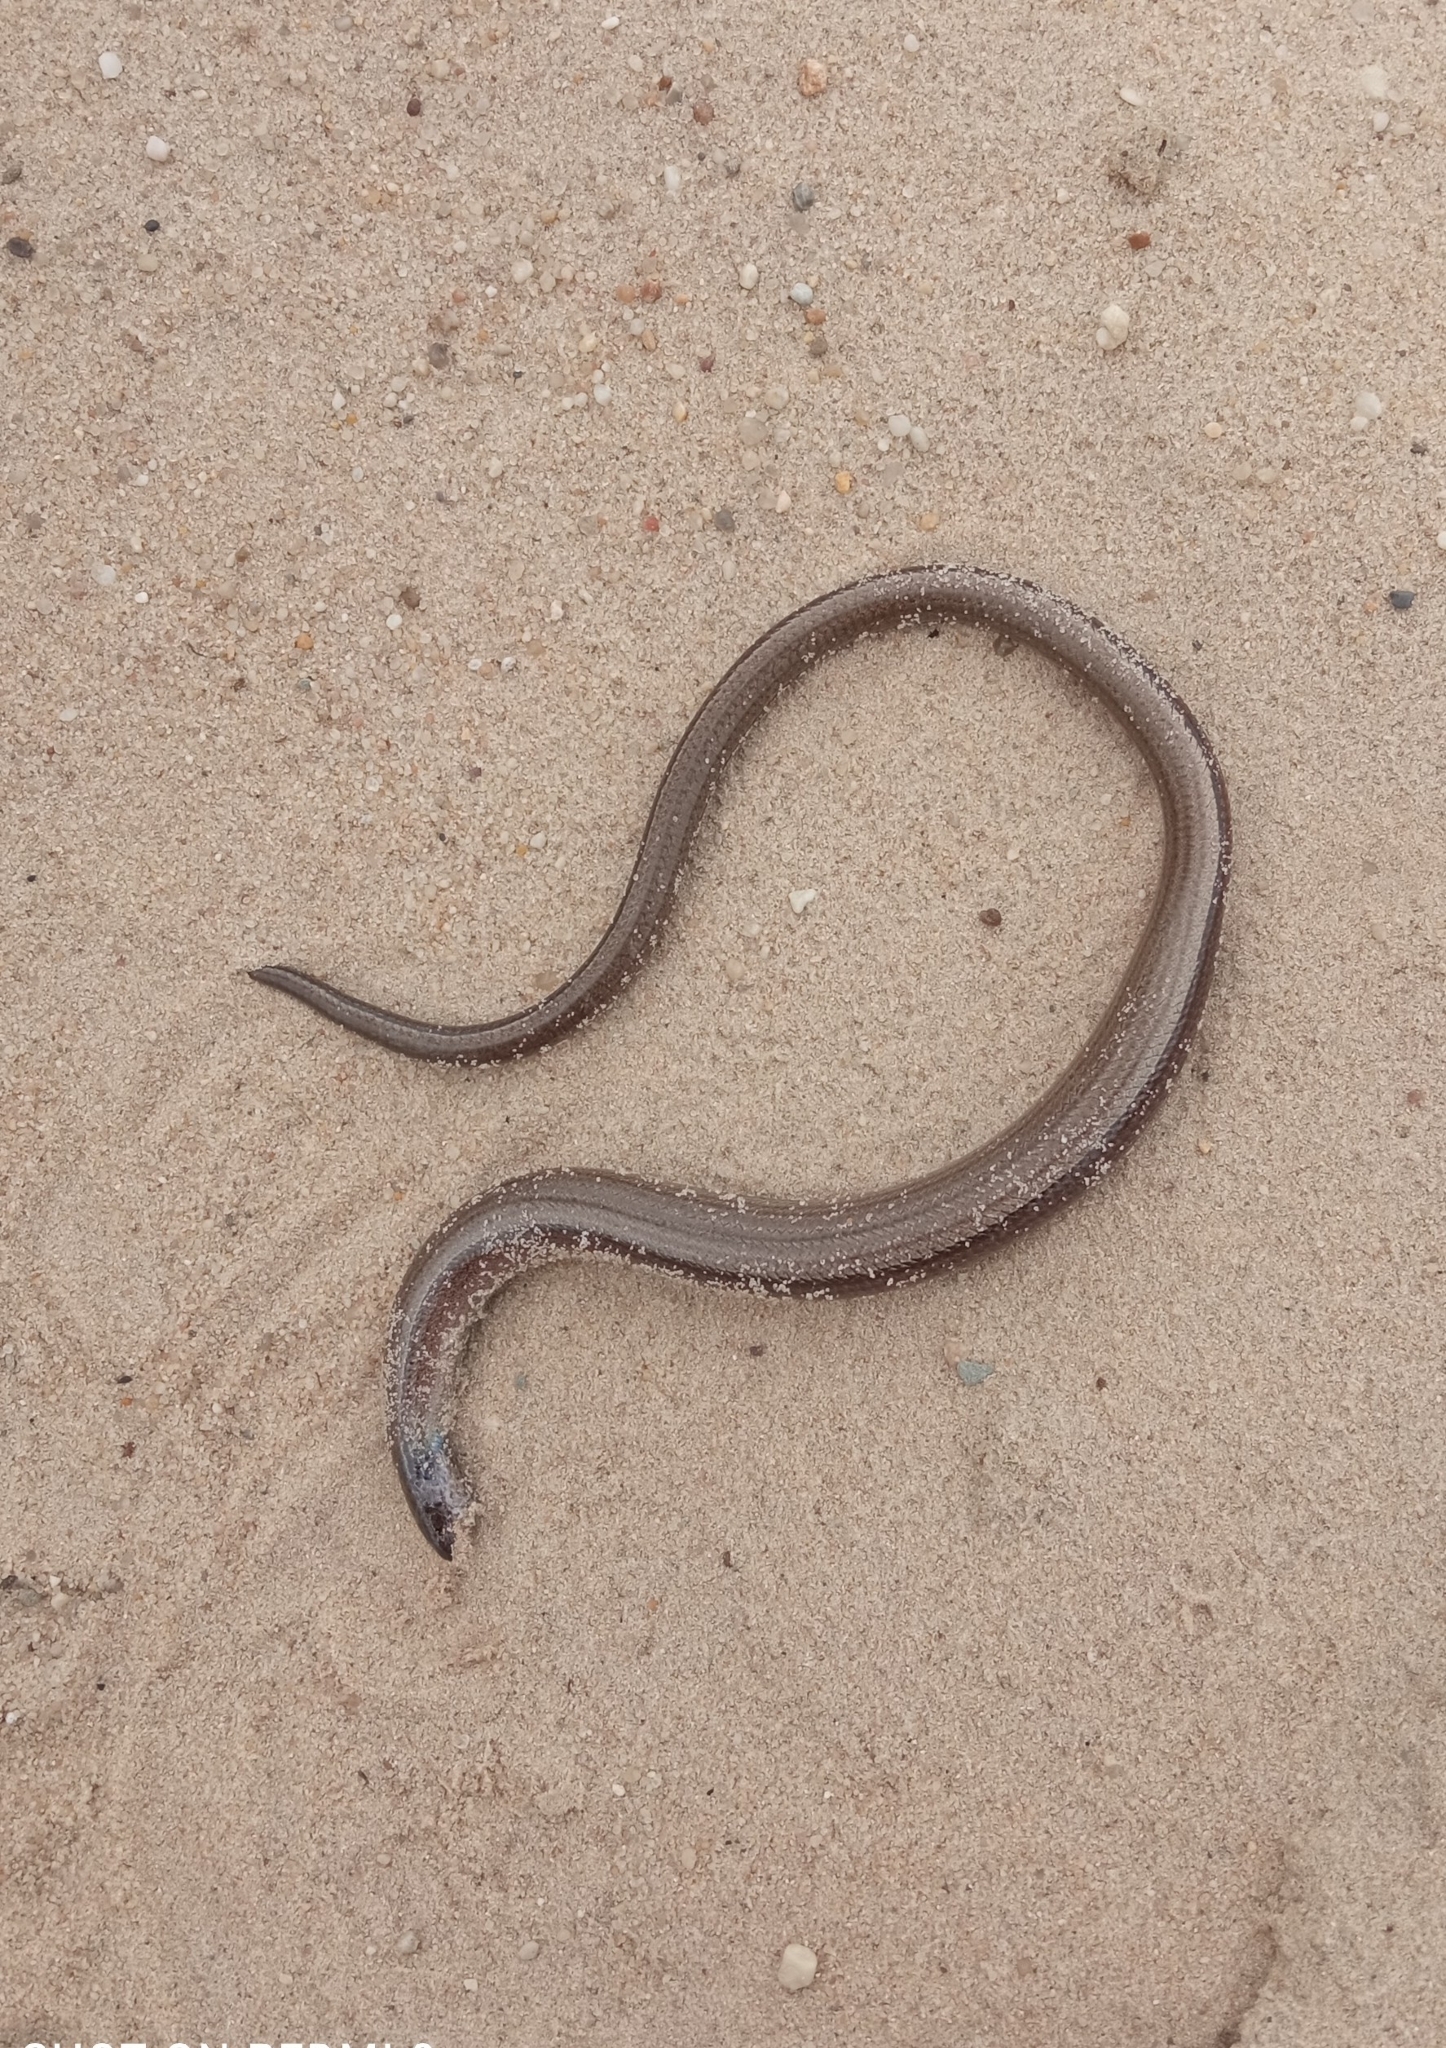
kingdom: Animalia
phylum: Chordata
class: Squamata
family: Anguidae
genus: Anguis
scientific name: Anguis fragilis
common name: Slow worm
